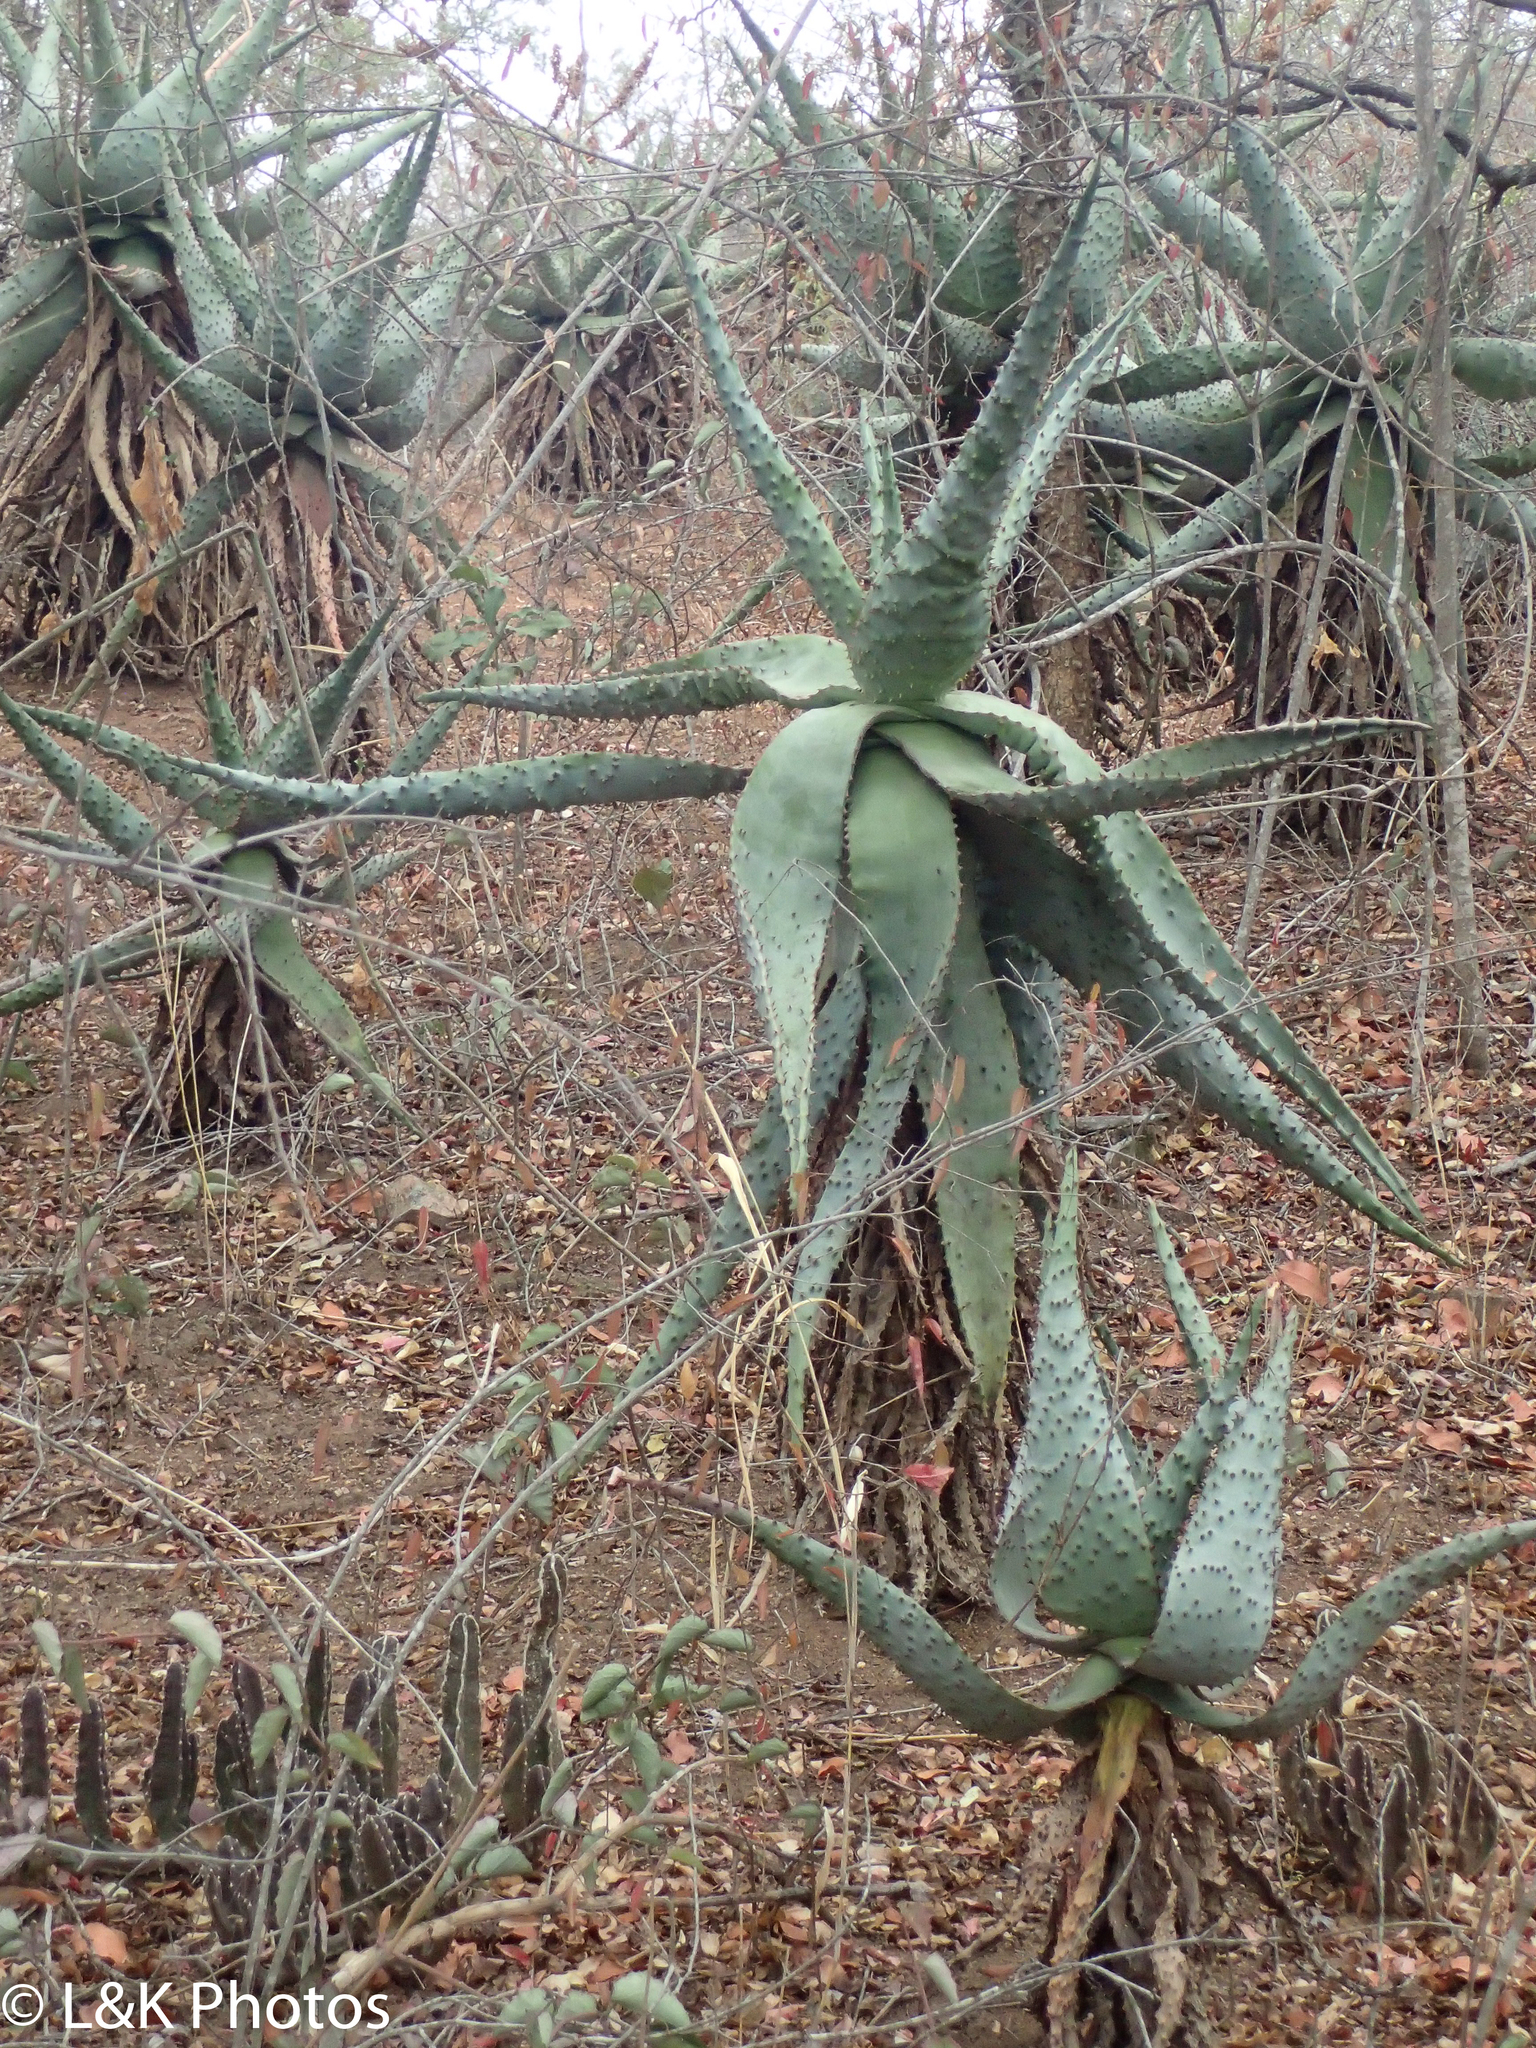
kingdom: Plantae
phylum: Tracheophyta
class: Liliopsida
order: Asparagales
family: Asphodelaceae
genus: Aloe
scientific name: Aloe marlothii
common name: Flat-flowered aloe
